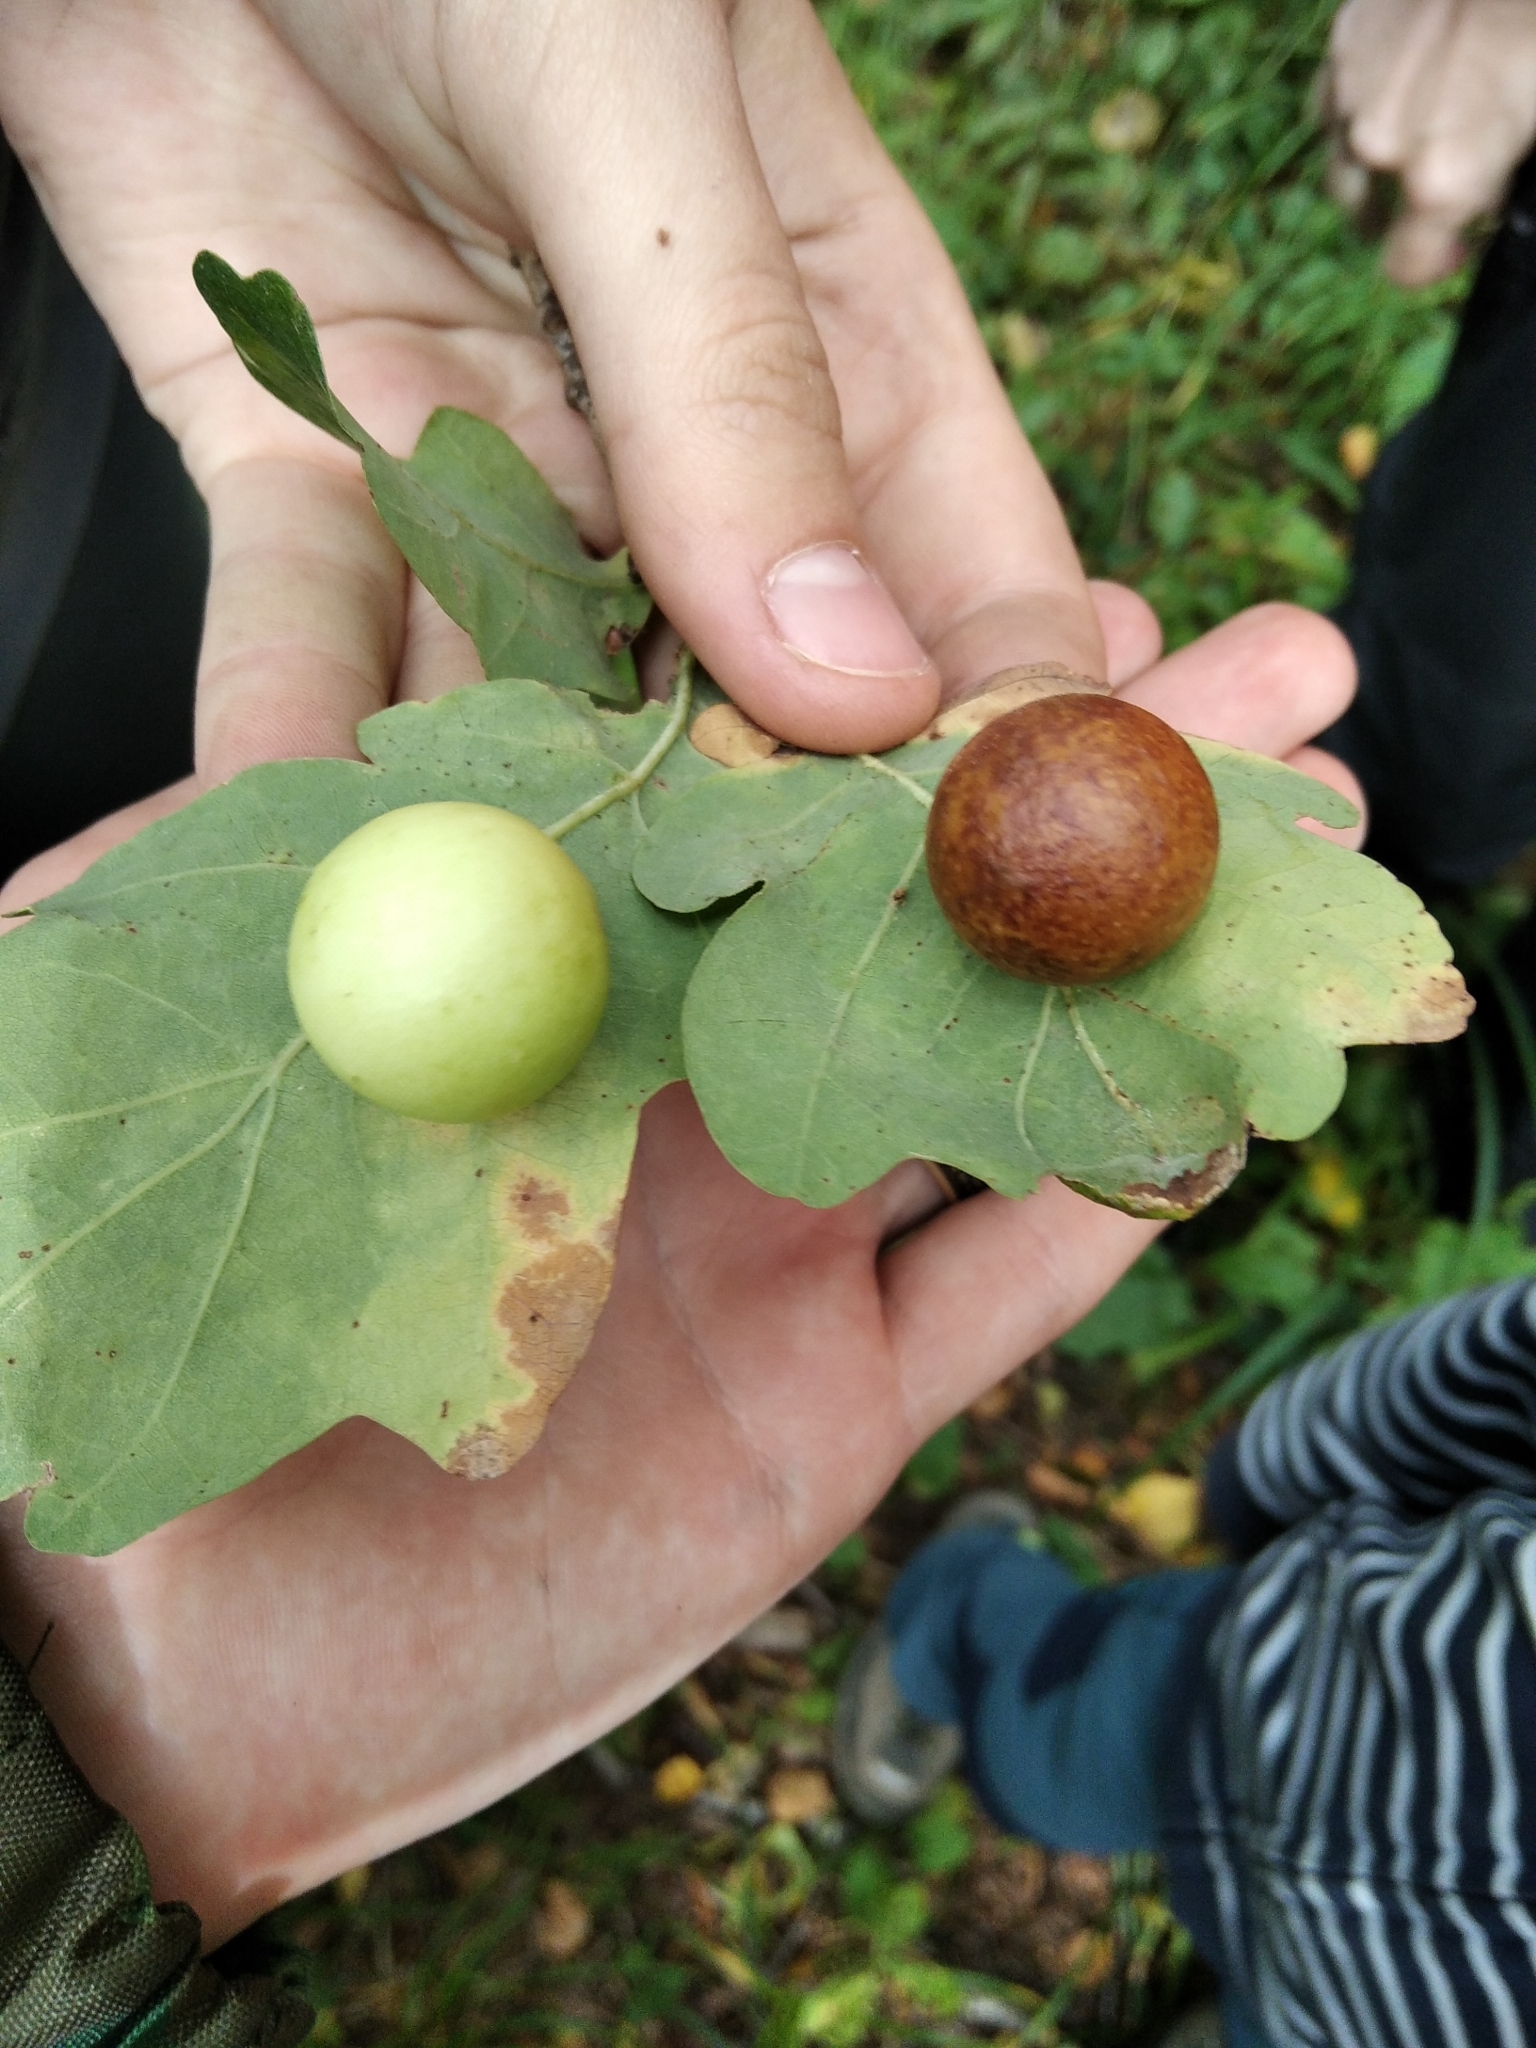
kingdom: Animalia
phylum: Arthropoda
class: Insecta
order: Hymenoptera
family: Cynipidae
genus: Cynips
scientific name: Cynips quercusfolii
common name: Cherry gall
